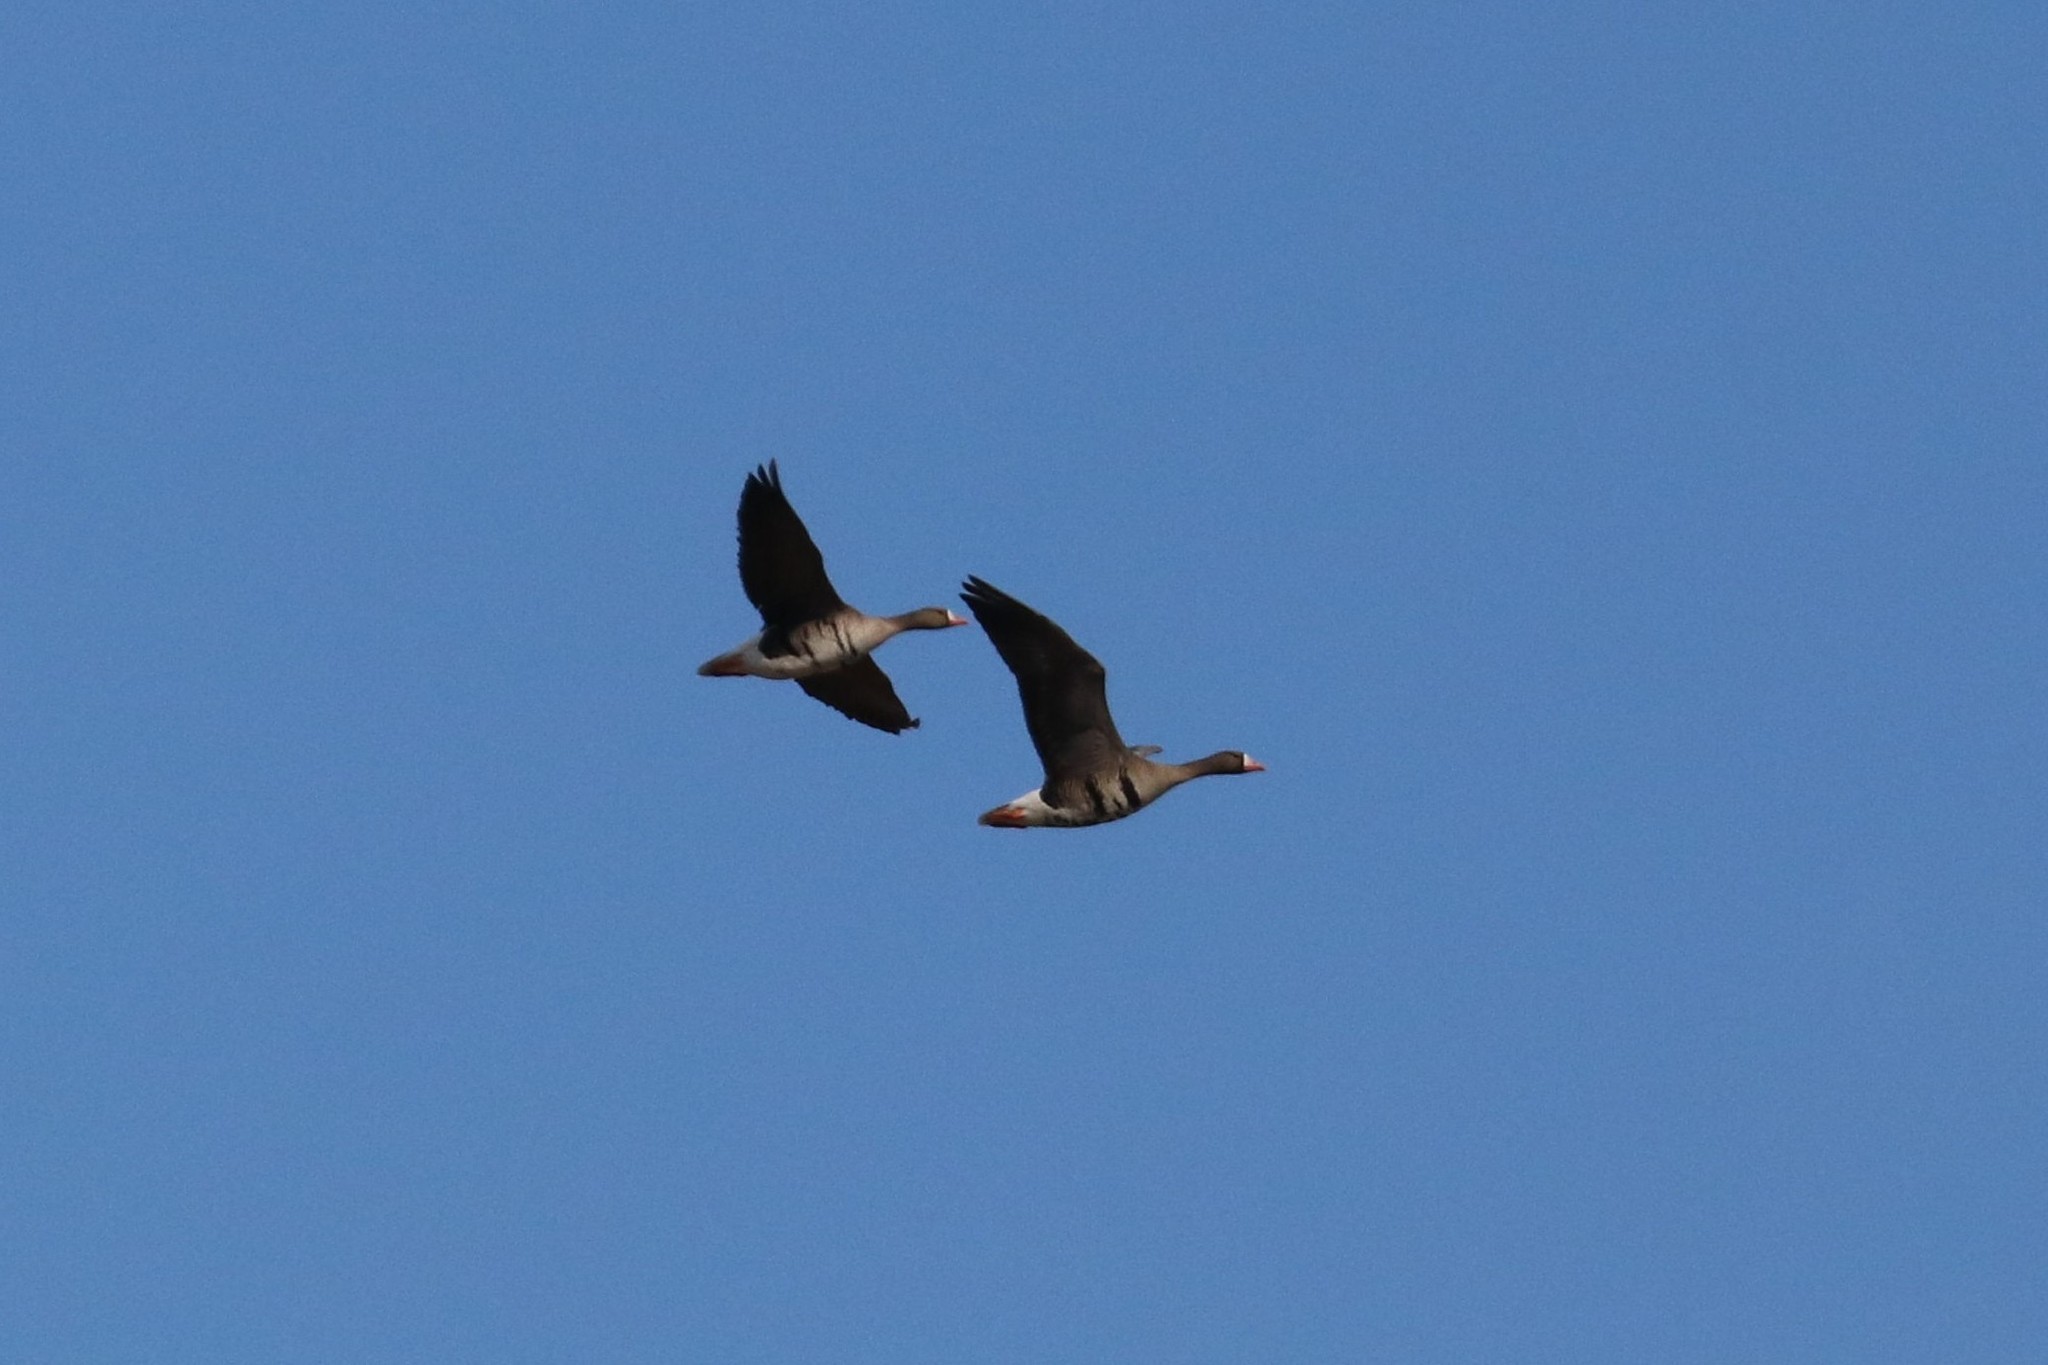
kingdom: Animalia
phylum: Chordata
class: Aves
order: Anseriformes
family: Anatidae
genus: Anser
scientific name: Anser albifrons
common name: Greater white-fronted goose
